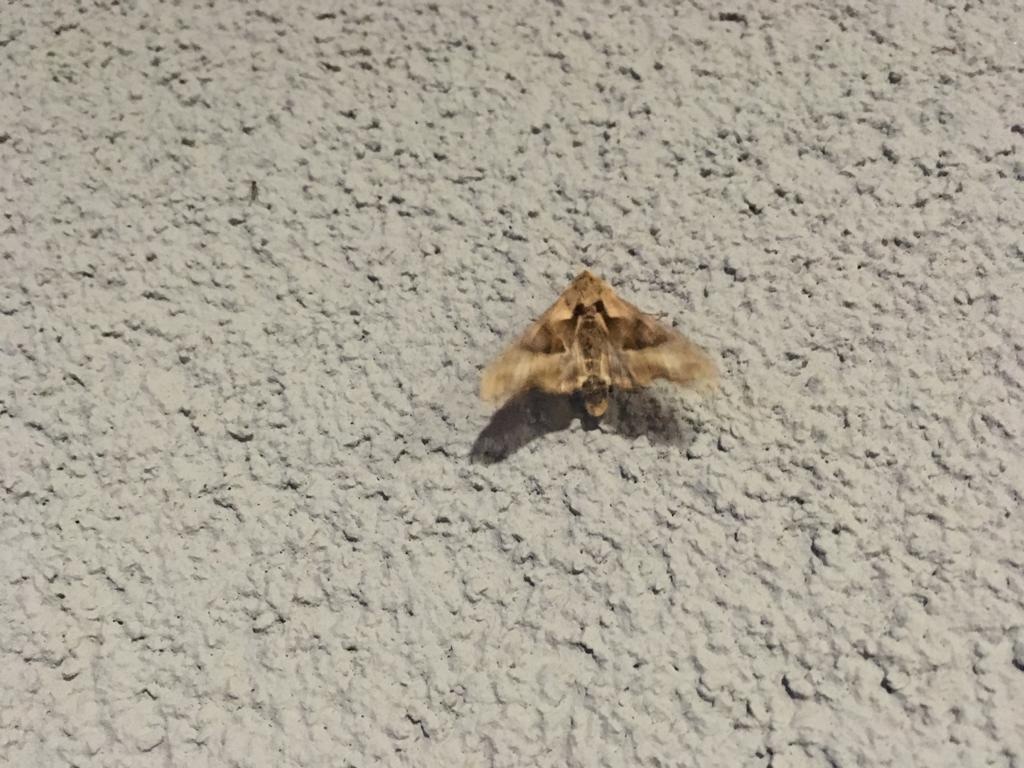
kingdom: Animalia
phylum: Arthropoda
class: Insecta
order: Lepidoptera
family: Noctuidae
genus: Phlogophora
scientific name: Phlogophora meticulosa
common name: Angle shades
